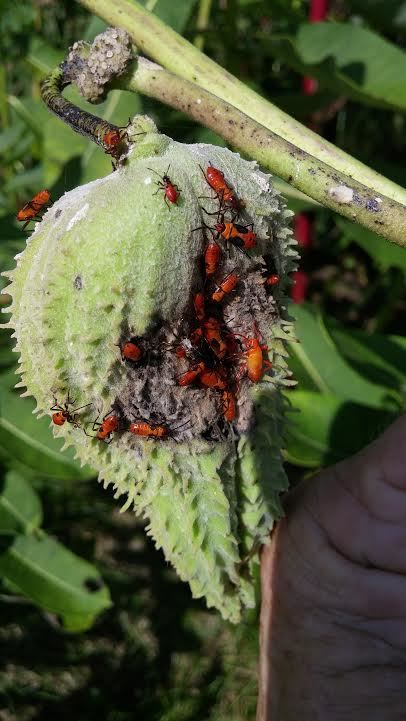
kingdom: Animalia
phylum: Arthropoda
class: Insecta
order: Hemiptera
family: Lygaeidae
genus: Oncopeltus
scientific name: Oncopeltus fasciatus
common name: Large milkweed bug
